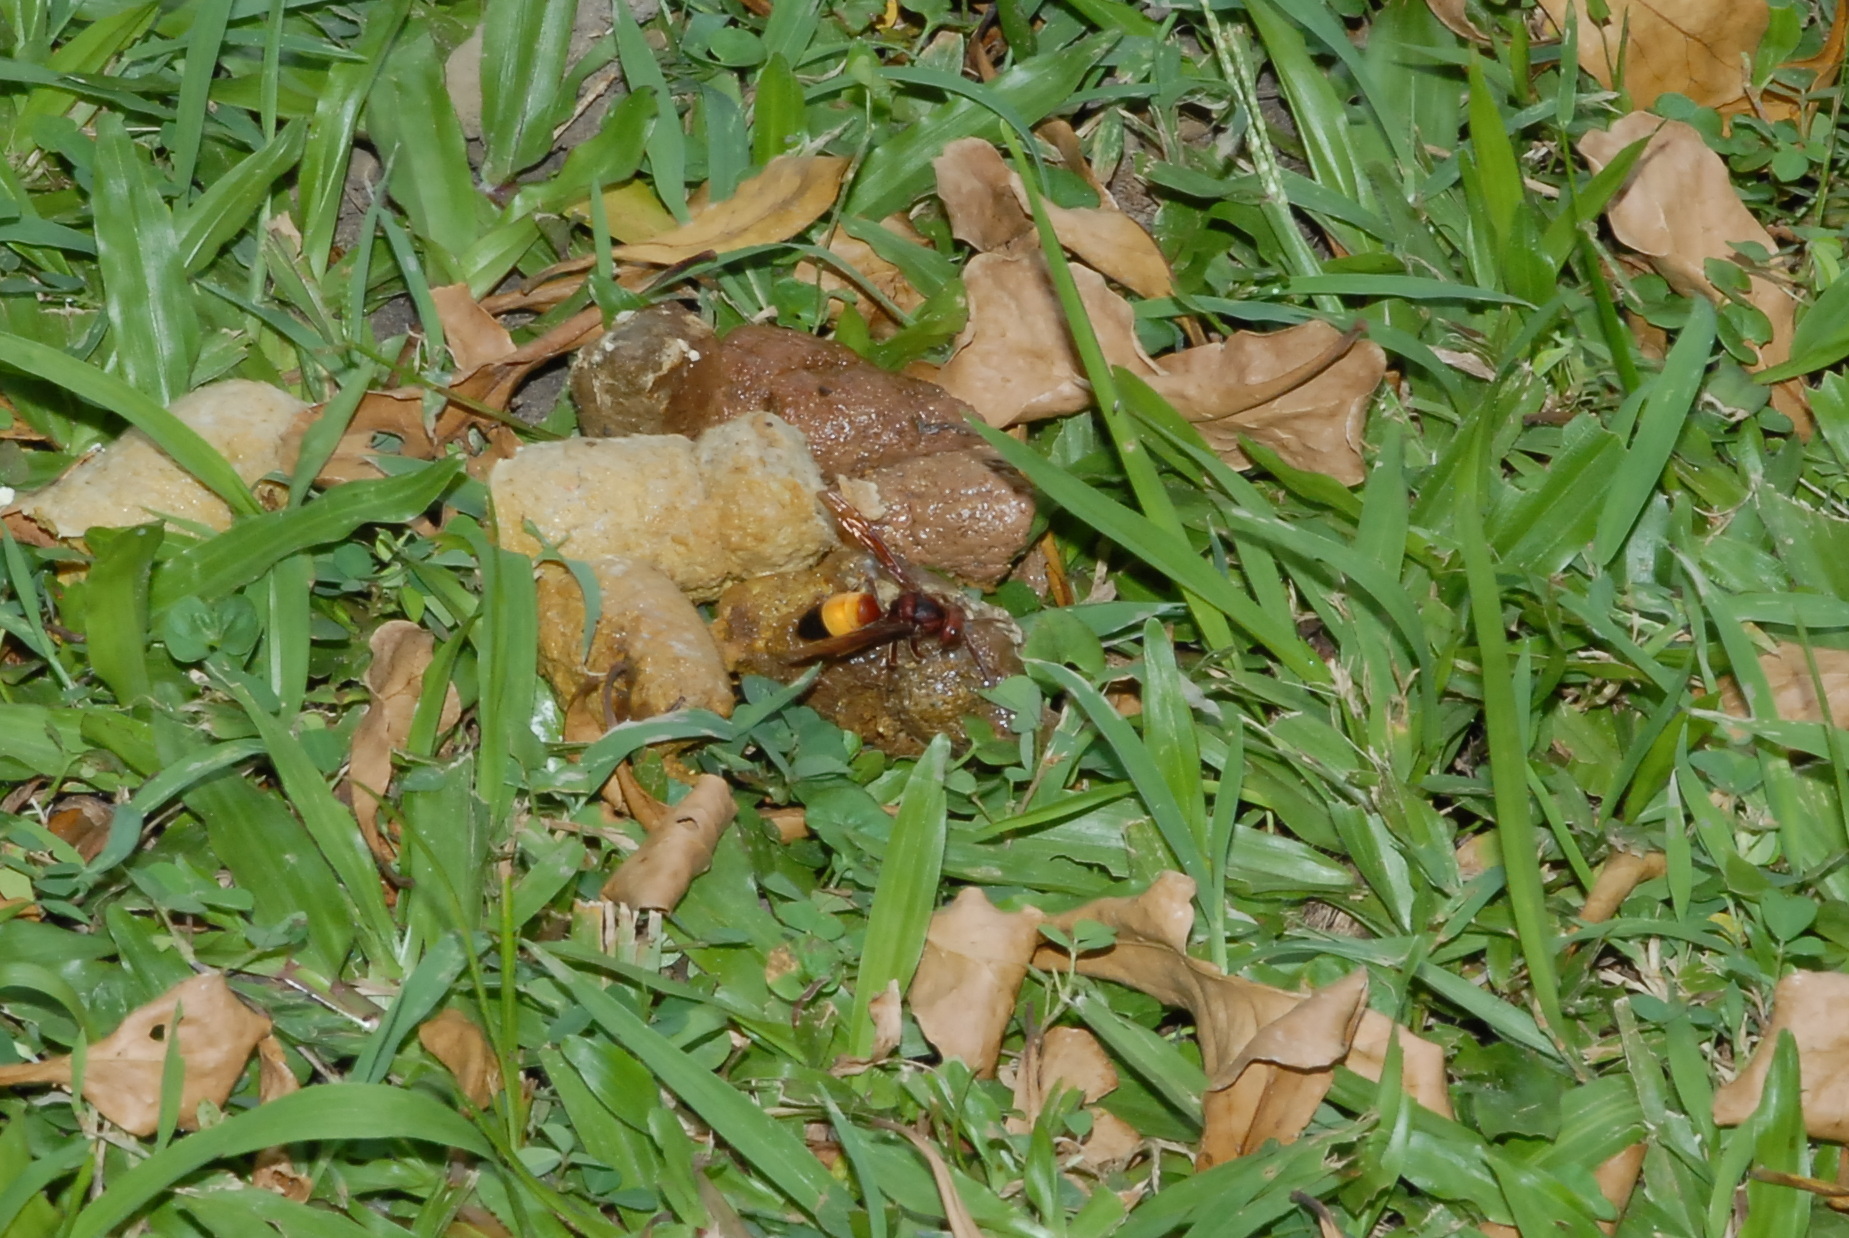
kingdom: Animalia
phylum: Arthropoda
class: Insecta
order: Hymenoptera
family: Vespidae
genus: Vespa
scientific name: Vespa affinis
